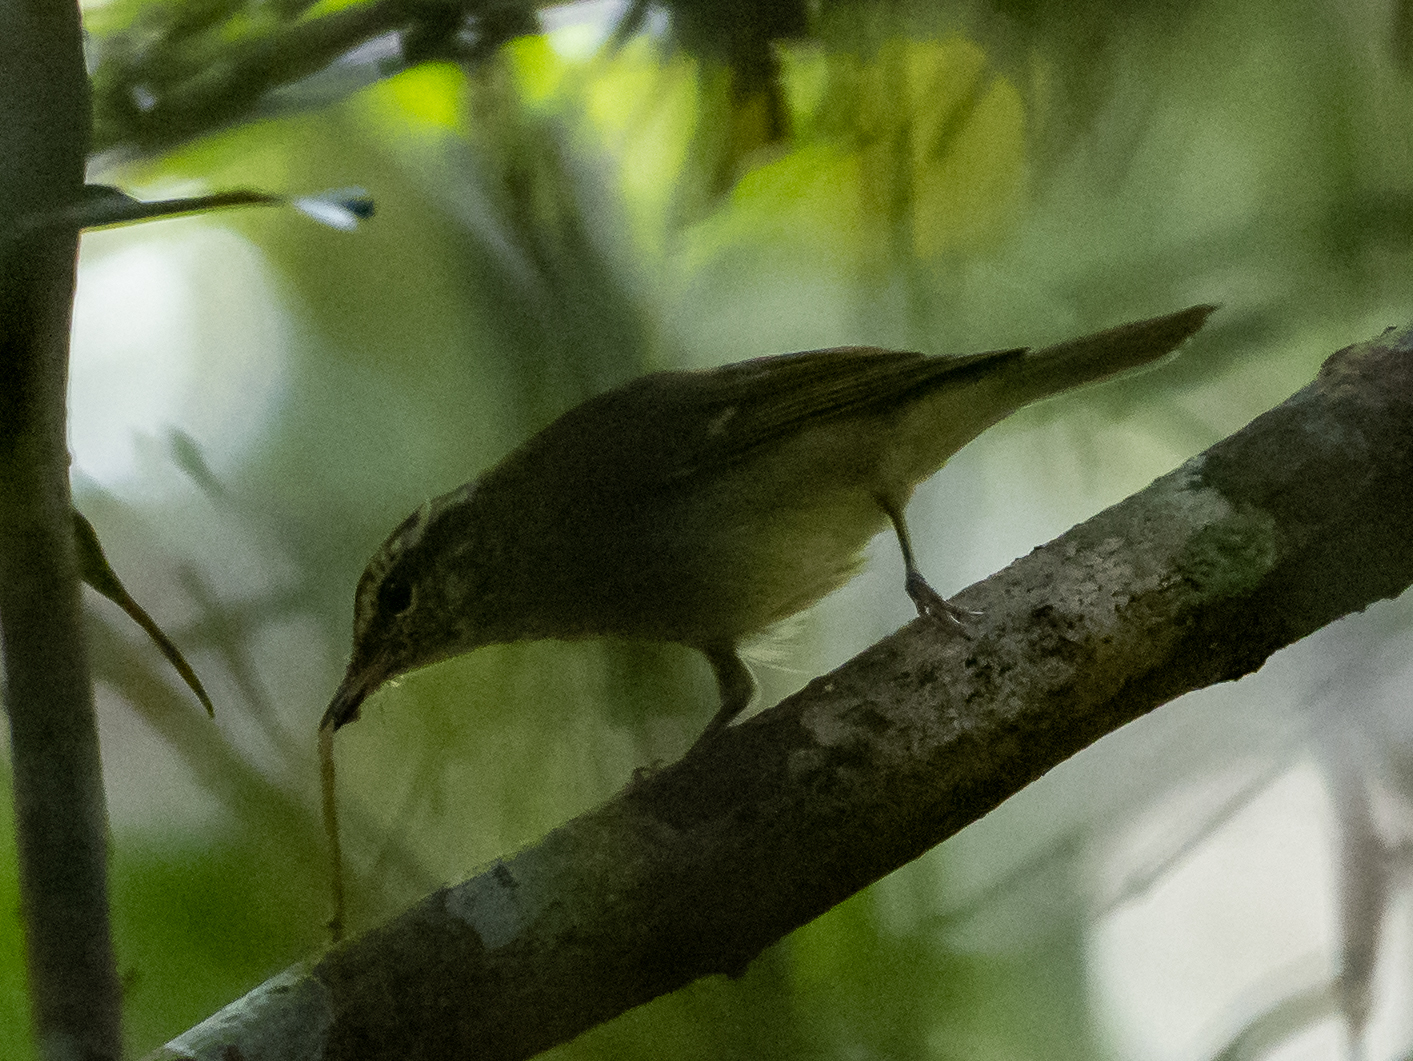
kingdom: Animalia
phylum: Chordata
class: Aves
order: Passeriformes
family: Phylloscopidae
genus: Phylloscopus
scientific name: Phylloscopus magnirostris
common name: Large-billed leaf warbler
